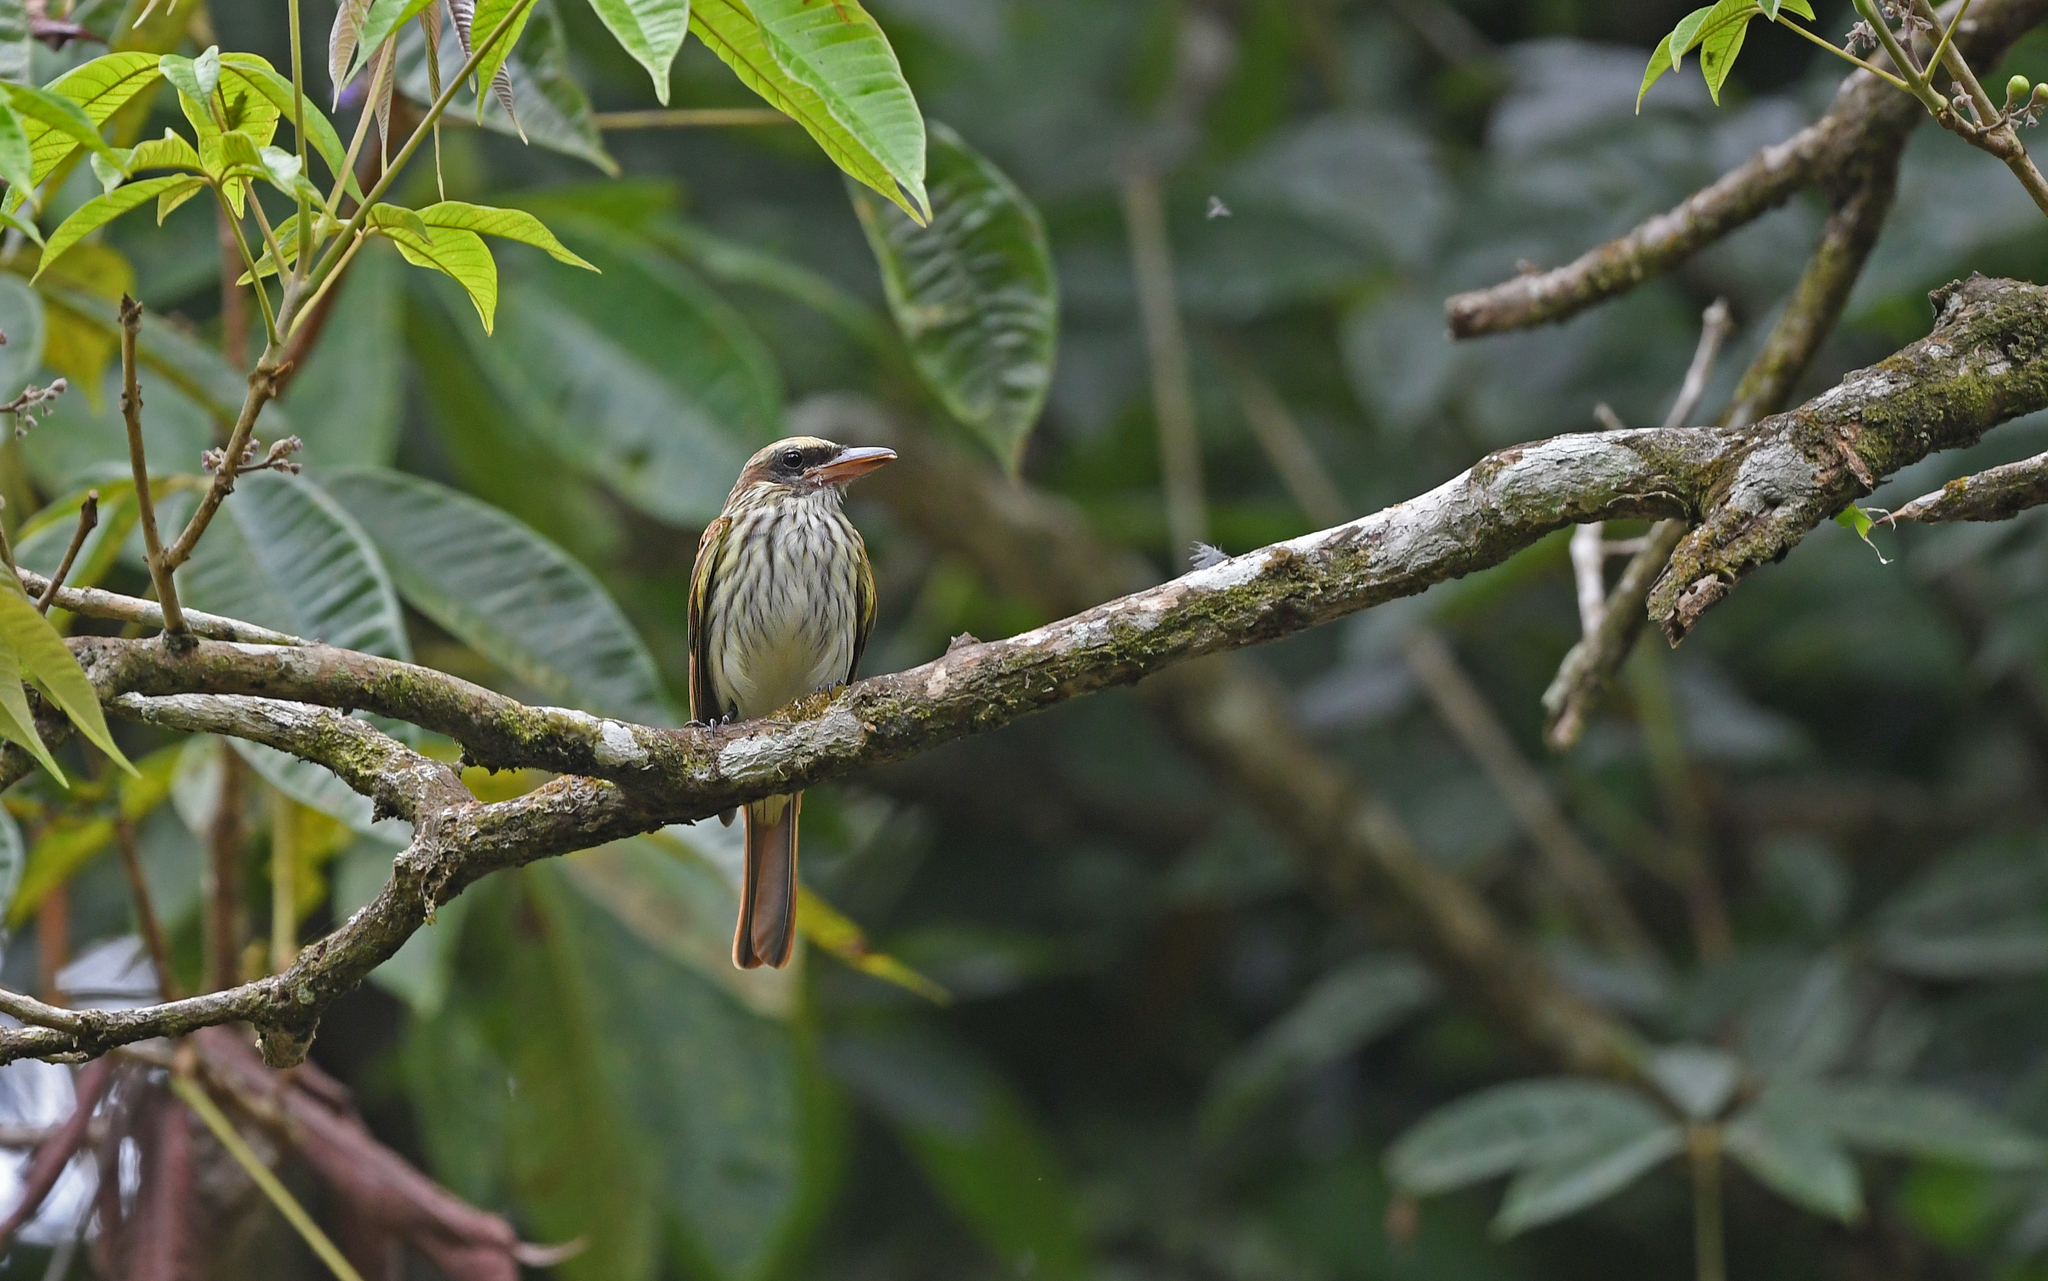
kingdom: Animalia
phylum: Chordata
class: Aves
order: Passeriformes
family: Tyrannidae
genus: Legatus
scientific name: Legatus leucophaius
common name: Piratic flycatcher
